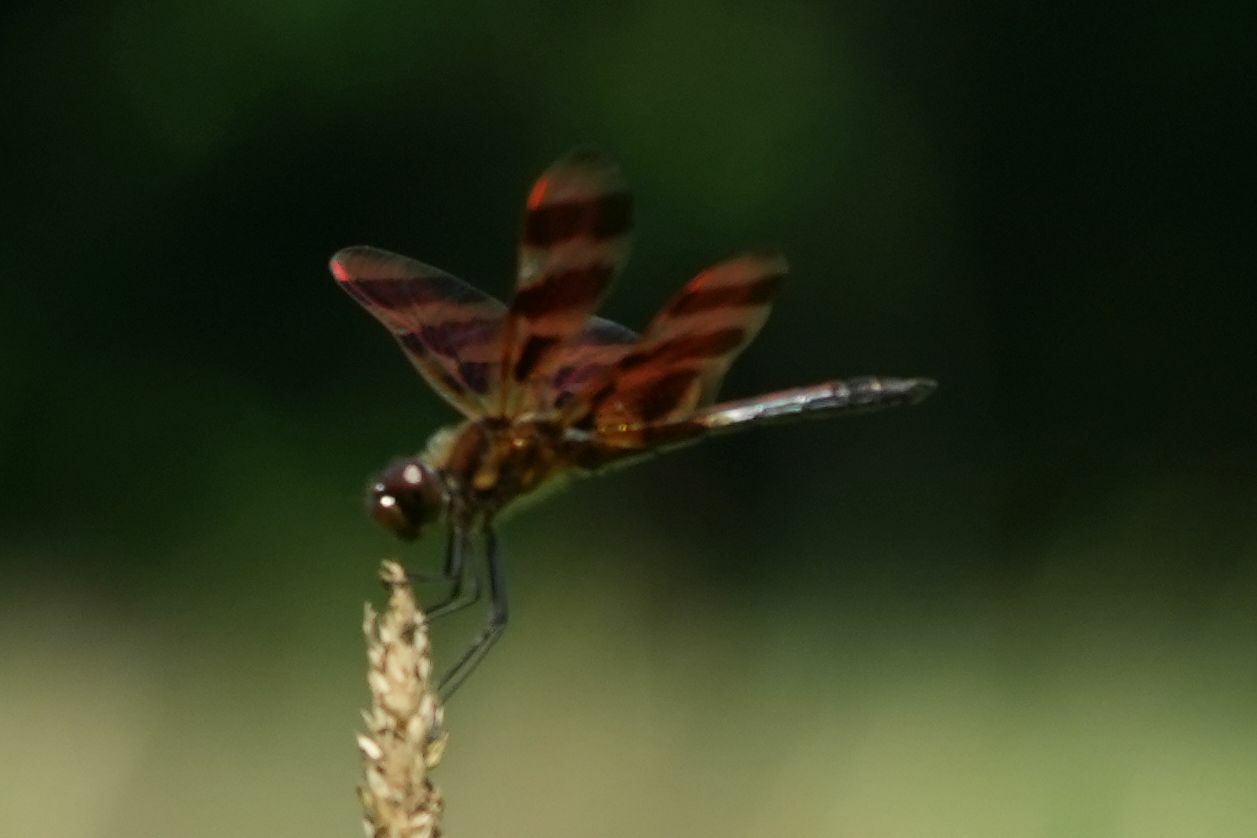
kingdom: Animalia
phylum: Arthropoda
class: Insecta
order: Odonata
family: Libellulidae
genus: Celithemis
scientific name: Celithemis eponina
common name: Halloween pennant
